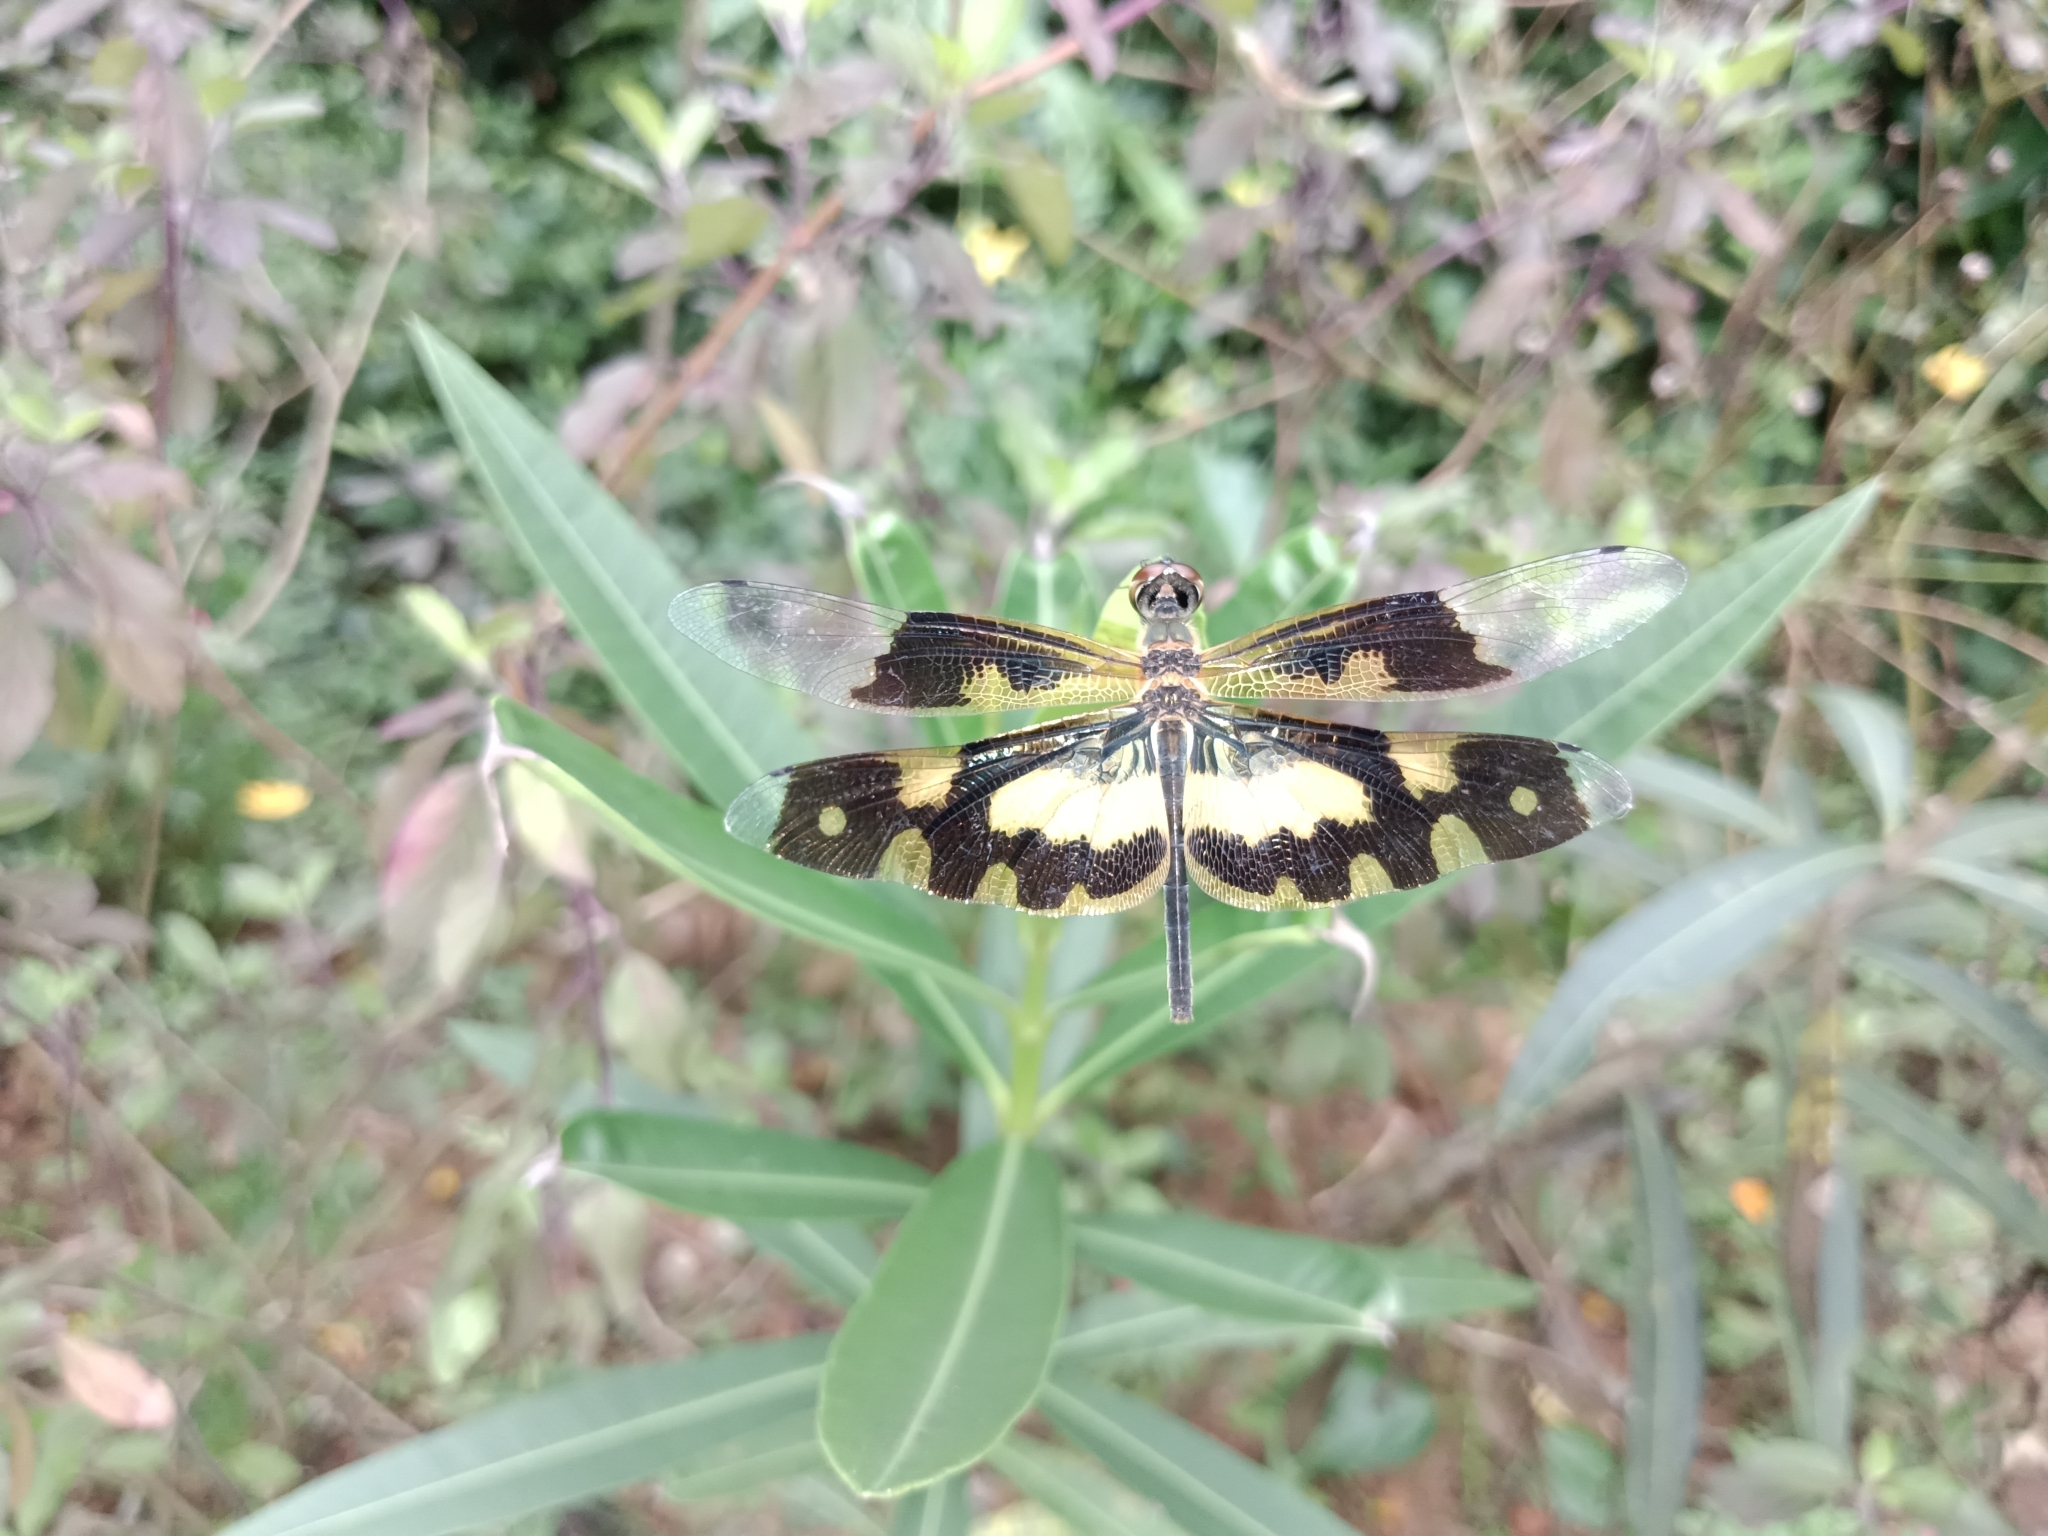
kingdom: Animalia
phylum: Arthropoda
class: Insecta
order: Odonata
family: Libellulidae
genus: Rhyothemis
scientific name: Rhyothemis variegata
